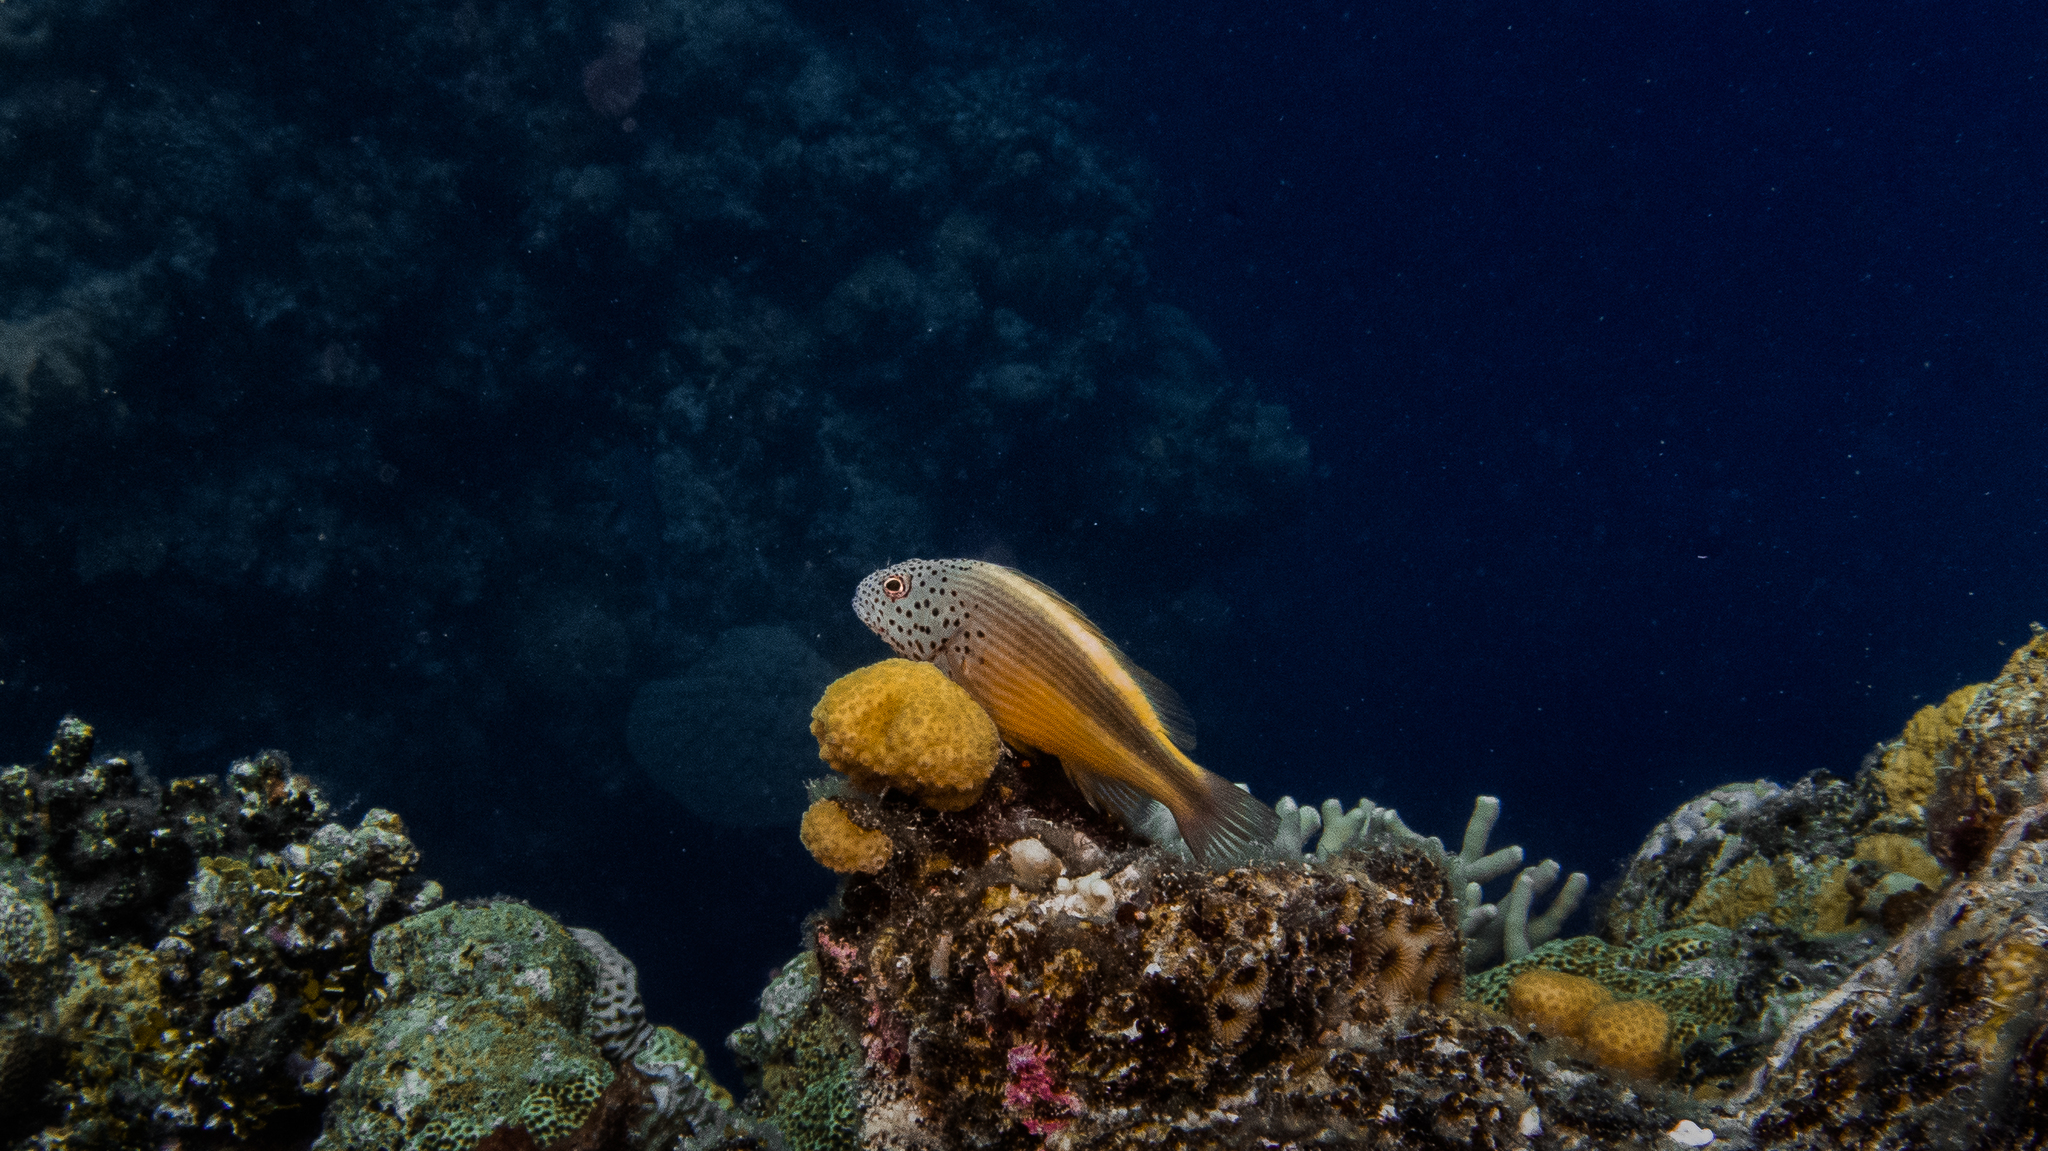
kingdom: Animalia
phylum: Chordata
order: Perciformes
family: Cirrhitidae
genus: Paracirrhites
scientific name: Paracirrhites forsteri
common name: Freckled hawkfish
